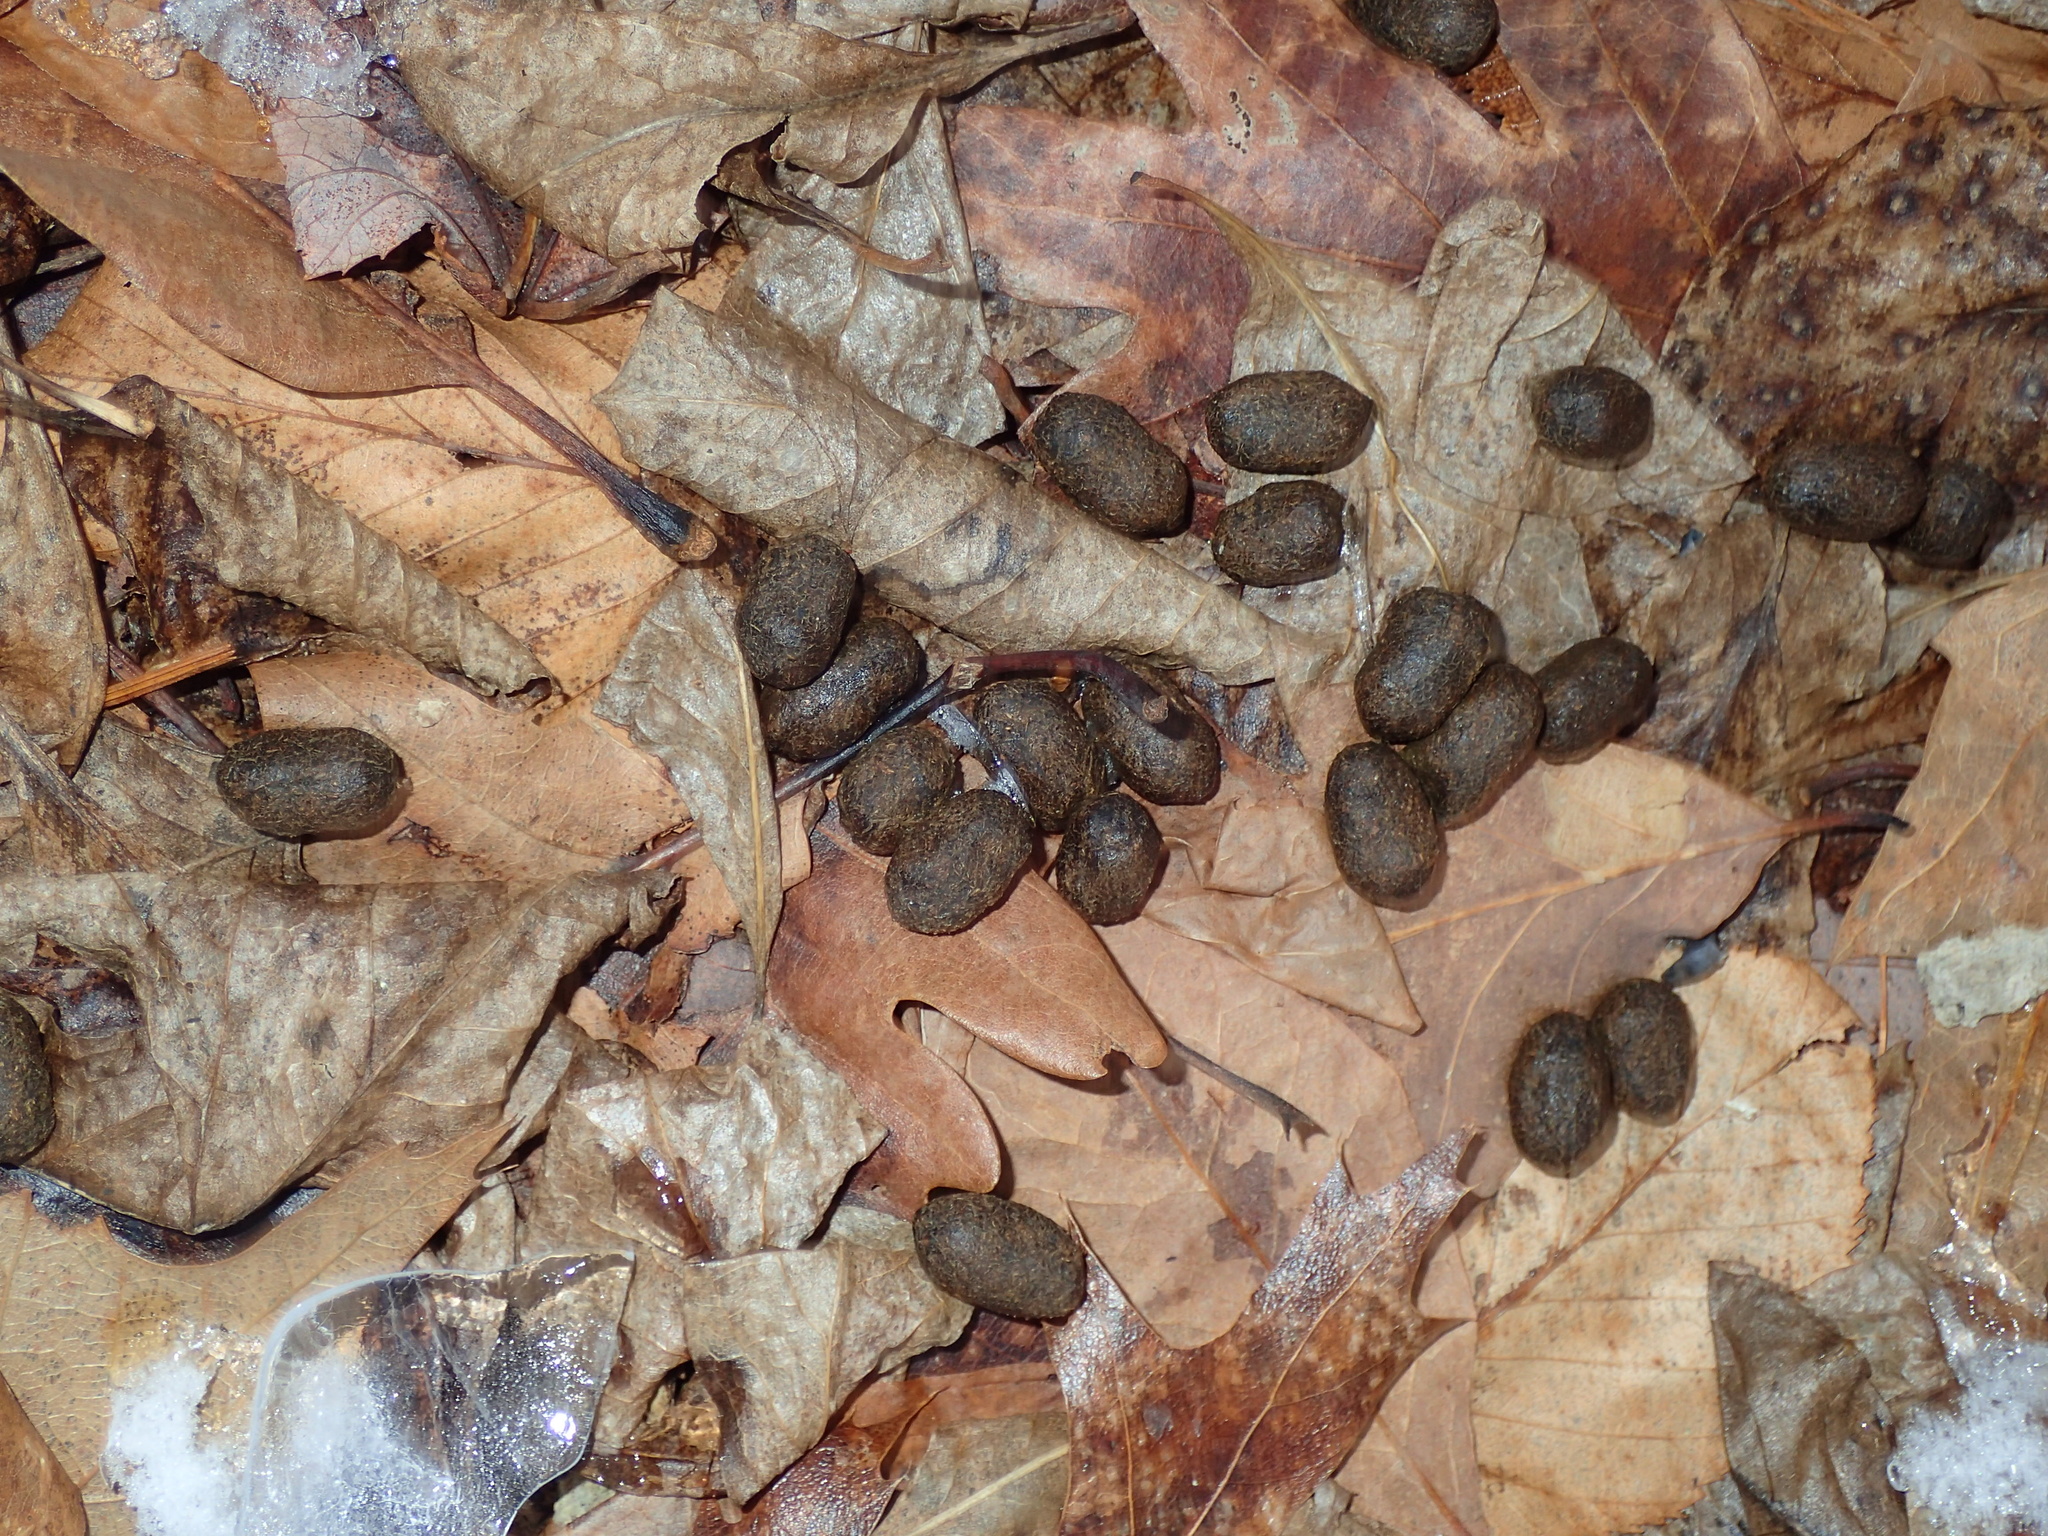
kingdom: Animalia
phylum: Chordata
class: Mammalia
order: Artiodactyla
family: Cervidae
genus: Odocoileus
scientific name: Odocoileus virginianus
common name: White-tailed deer
